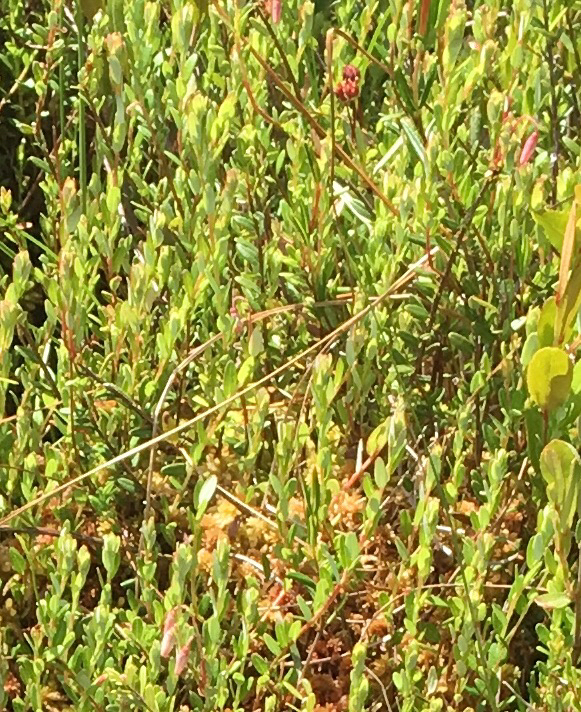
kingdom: Plantae
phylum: Tracheophyta
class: Magnoliopsida
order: Ericales
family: Ericaceae
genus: Vaccinium
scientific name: Vaccinium oxycoccos
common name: Cranberry
